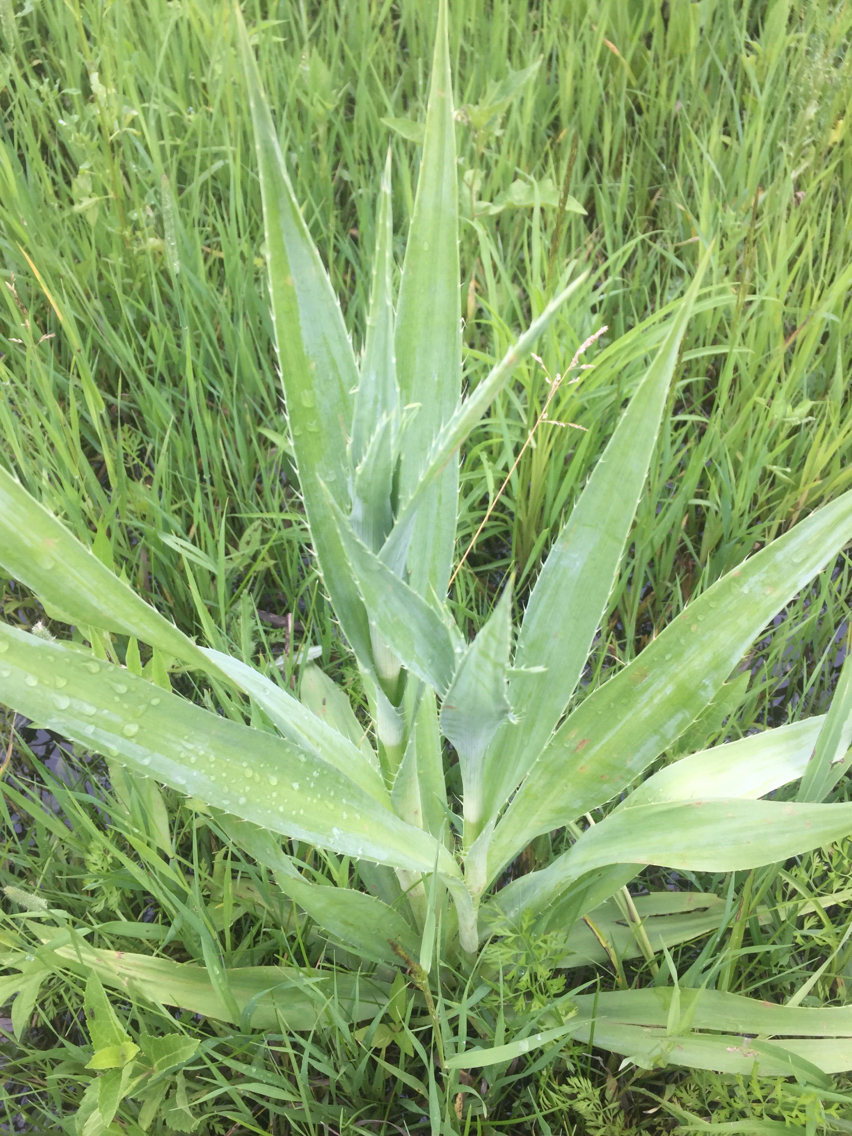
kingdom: Plantae
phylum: Tracheophyta
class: Magnoliopsida
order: Apiales
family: Apiaceae
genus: Eryngium
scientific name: Eryngium yuccifolium
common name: Button eryngo
